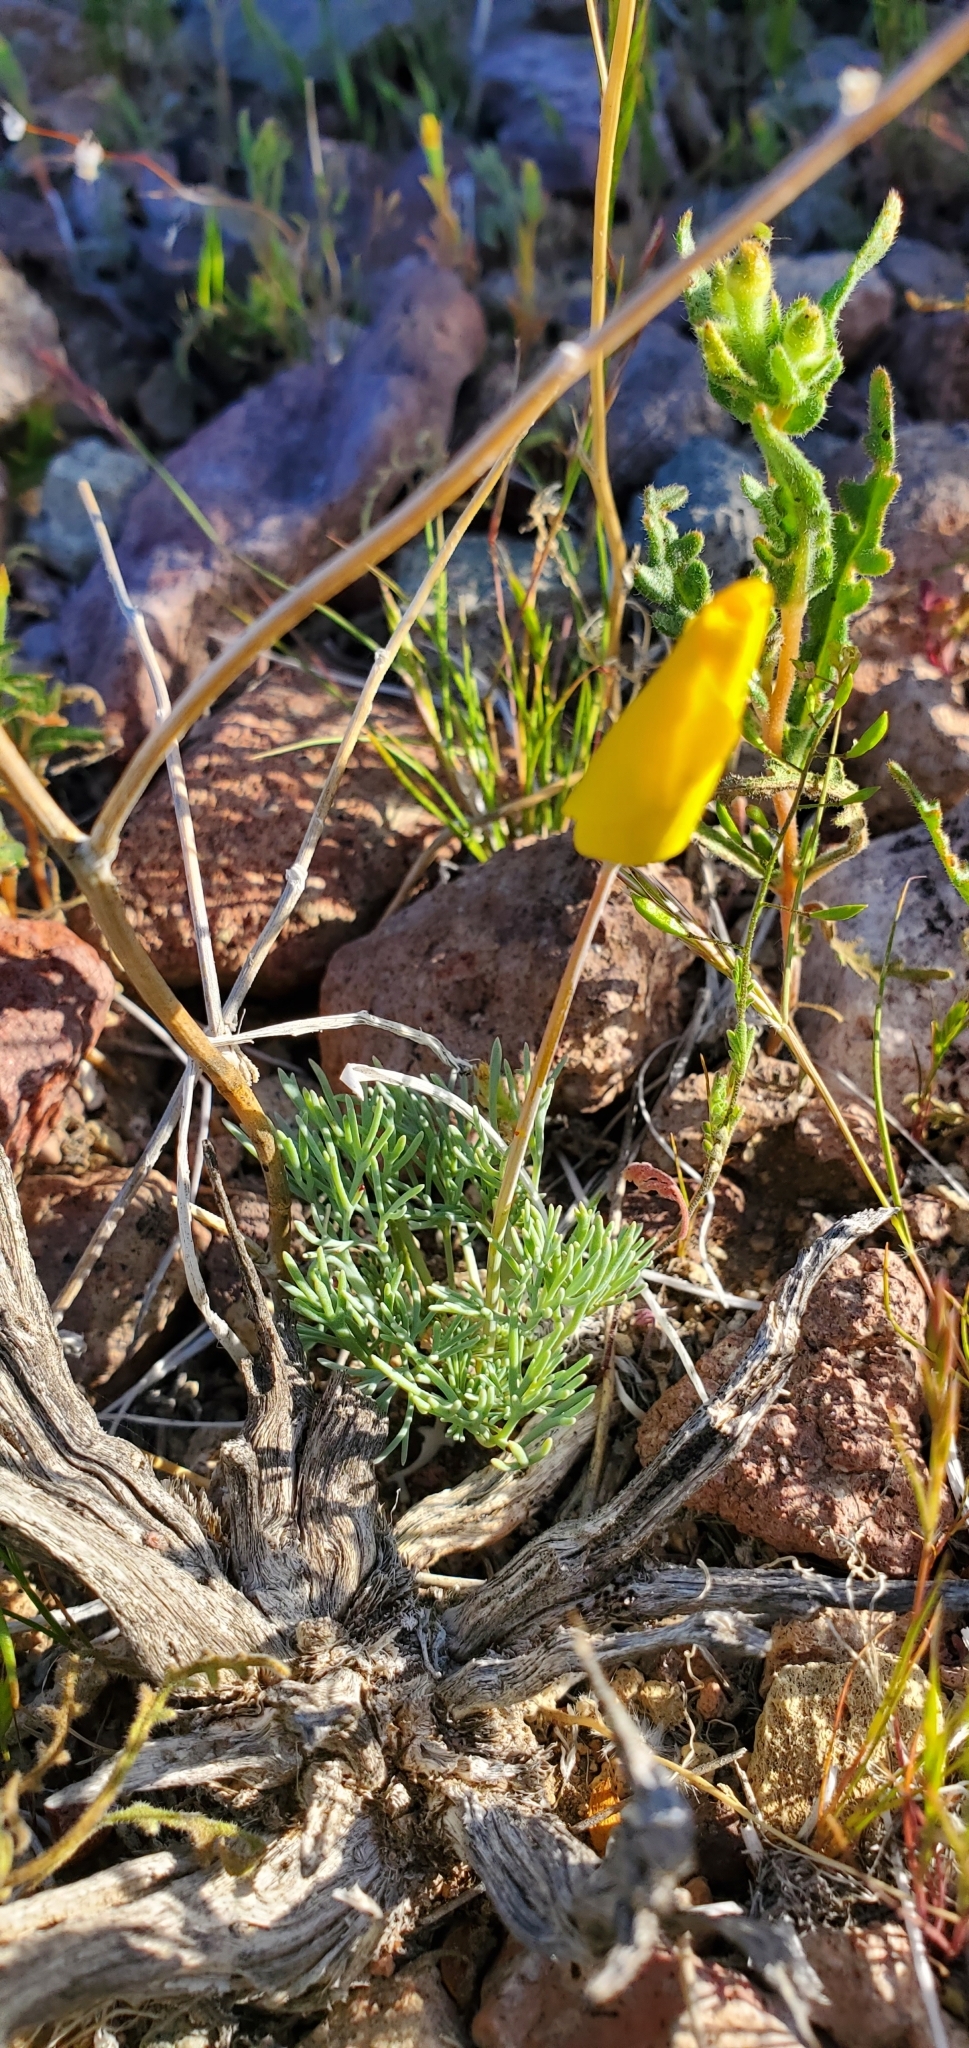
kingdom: Plantae
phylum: Tracheophyta
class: Magnoliopsida
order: Ranunculales
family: Papaveraceae
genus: Eschscholzia
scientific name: Eschscholzia glyptosperma
